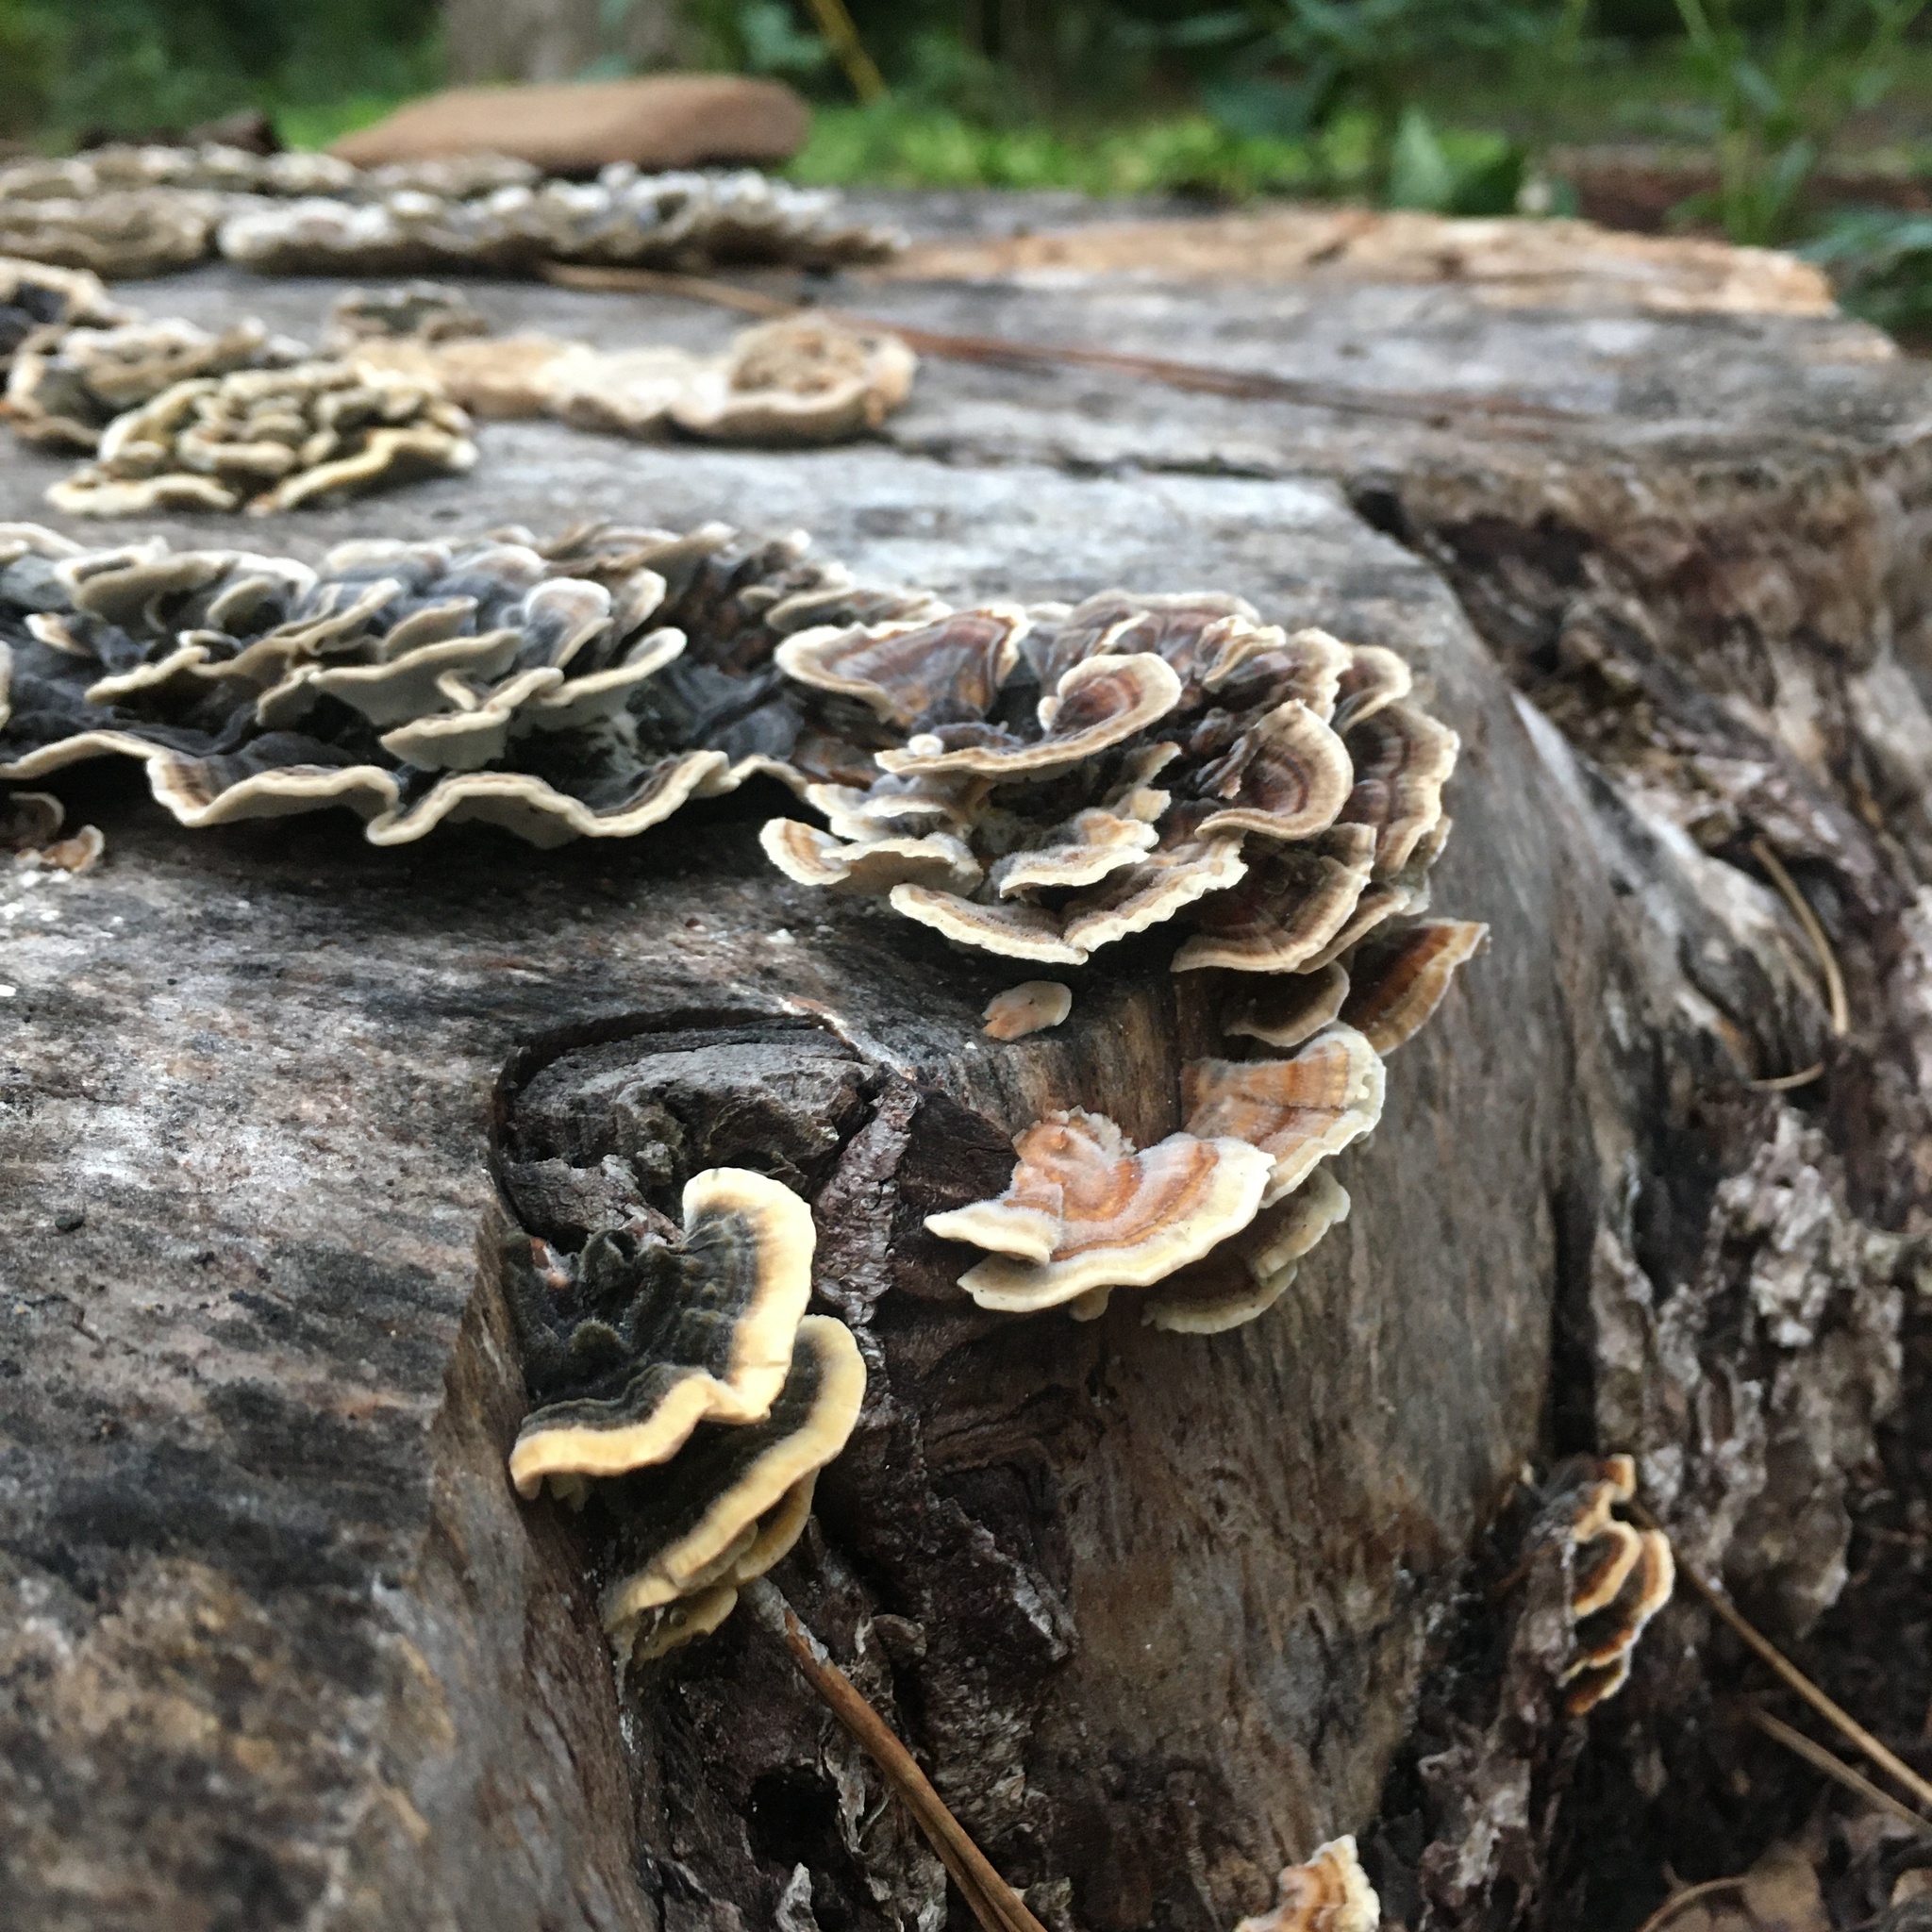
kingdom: Fungi
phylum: Basidiomycota
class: Agaricomycetes
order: Polyporales
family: Polyporaceae
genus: Trametes
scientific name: Trametes versicolor
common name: Turkeytail
